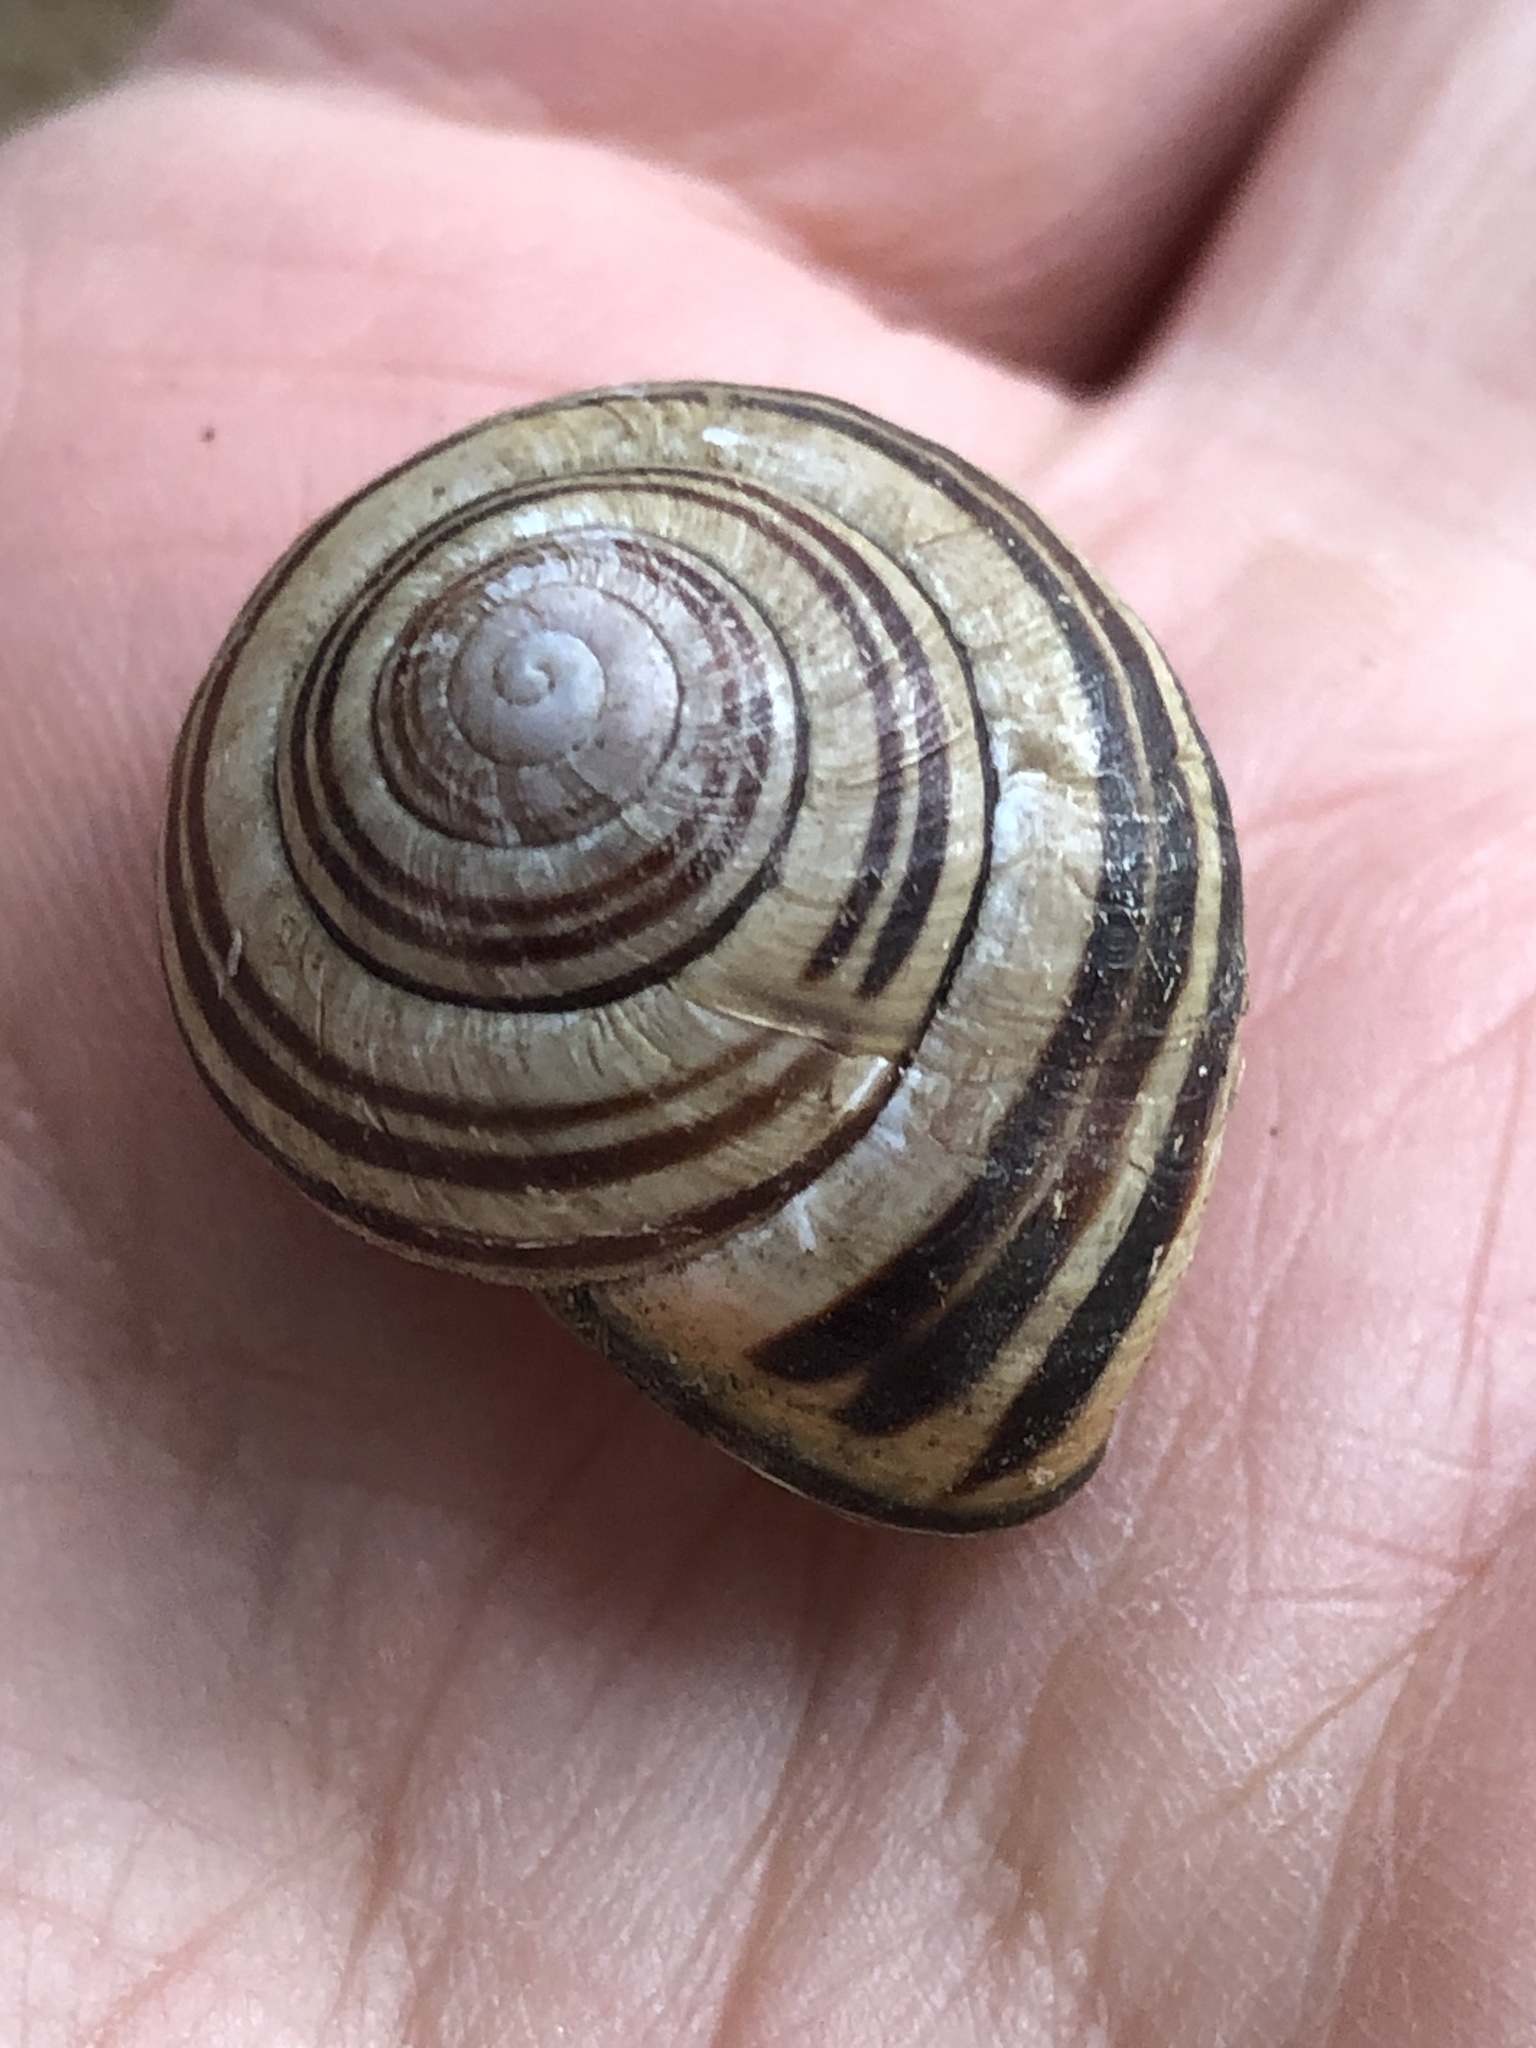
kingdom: Animalia
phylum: Mollusca
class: Gastropoda
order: Stylommatophora
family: Helicidae
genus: Cepaea
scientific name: Cepaea nemoralis
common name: Grovesnail
